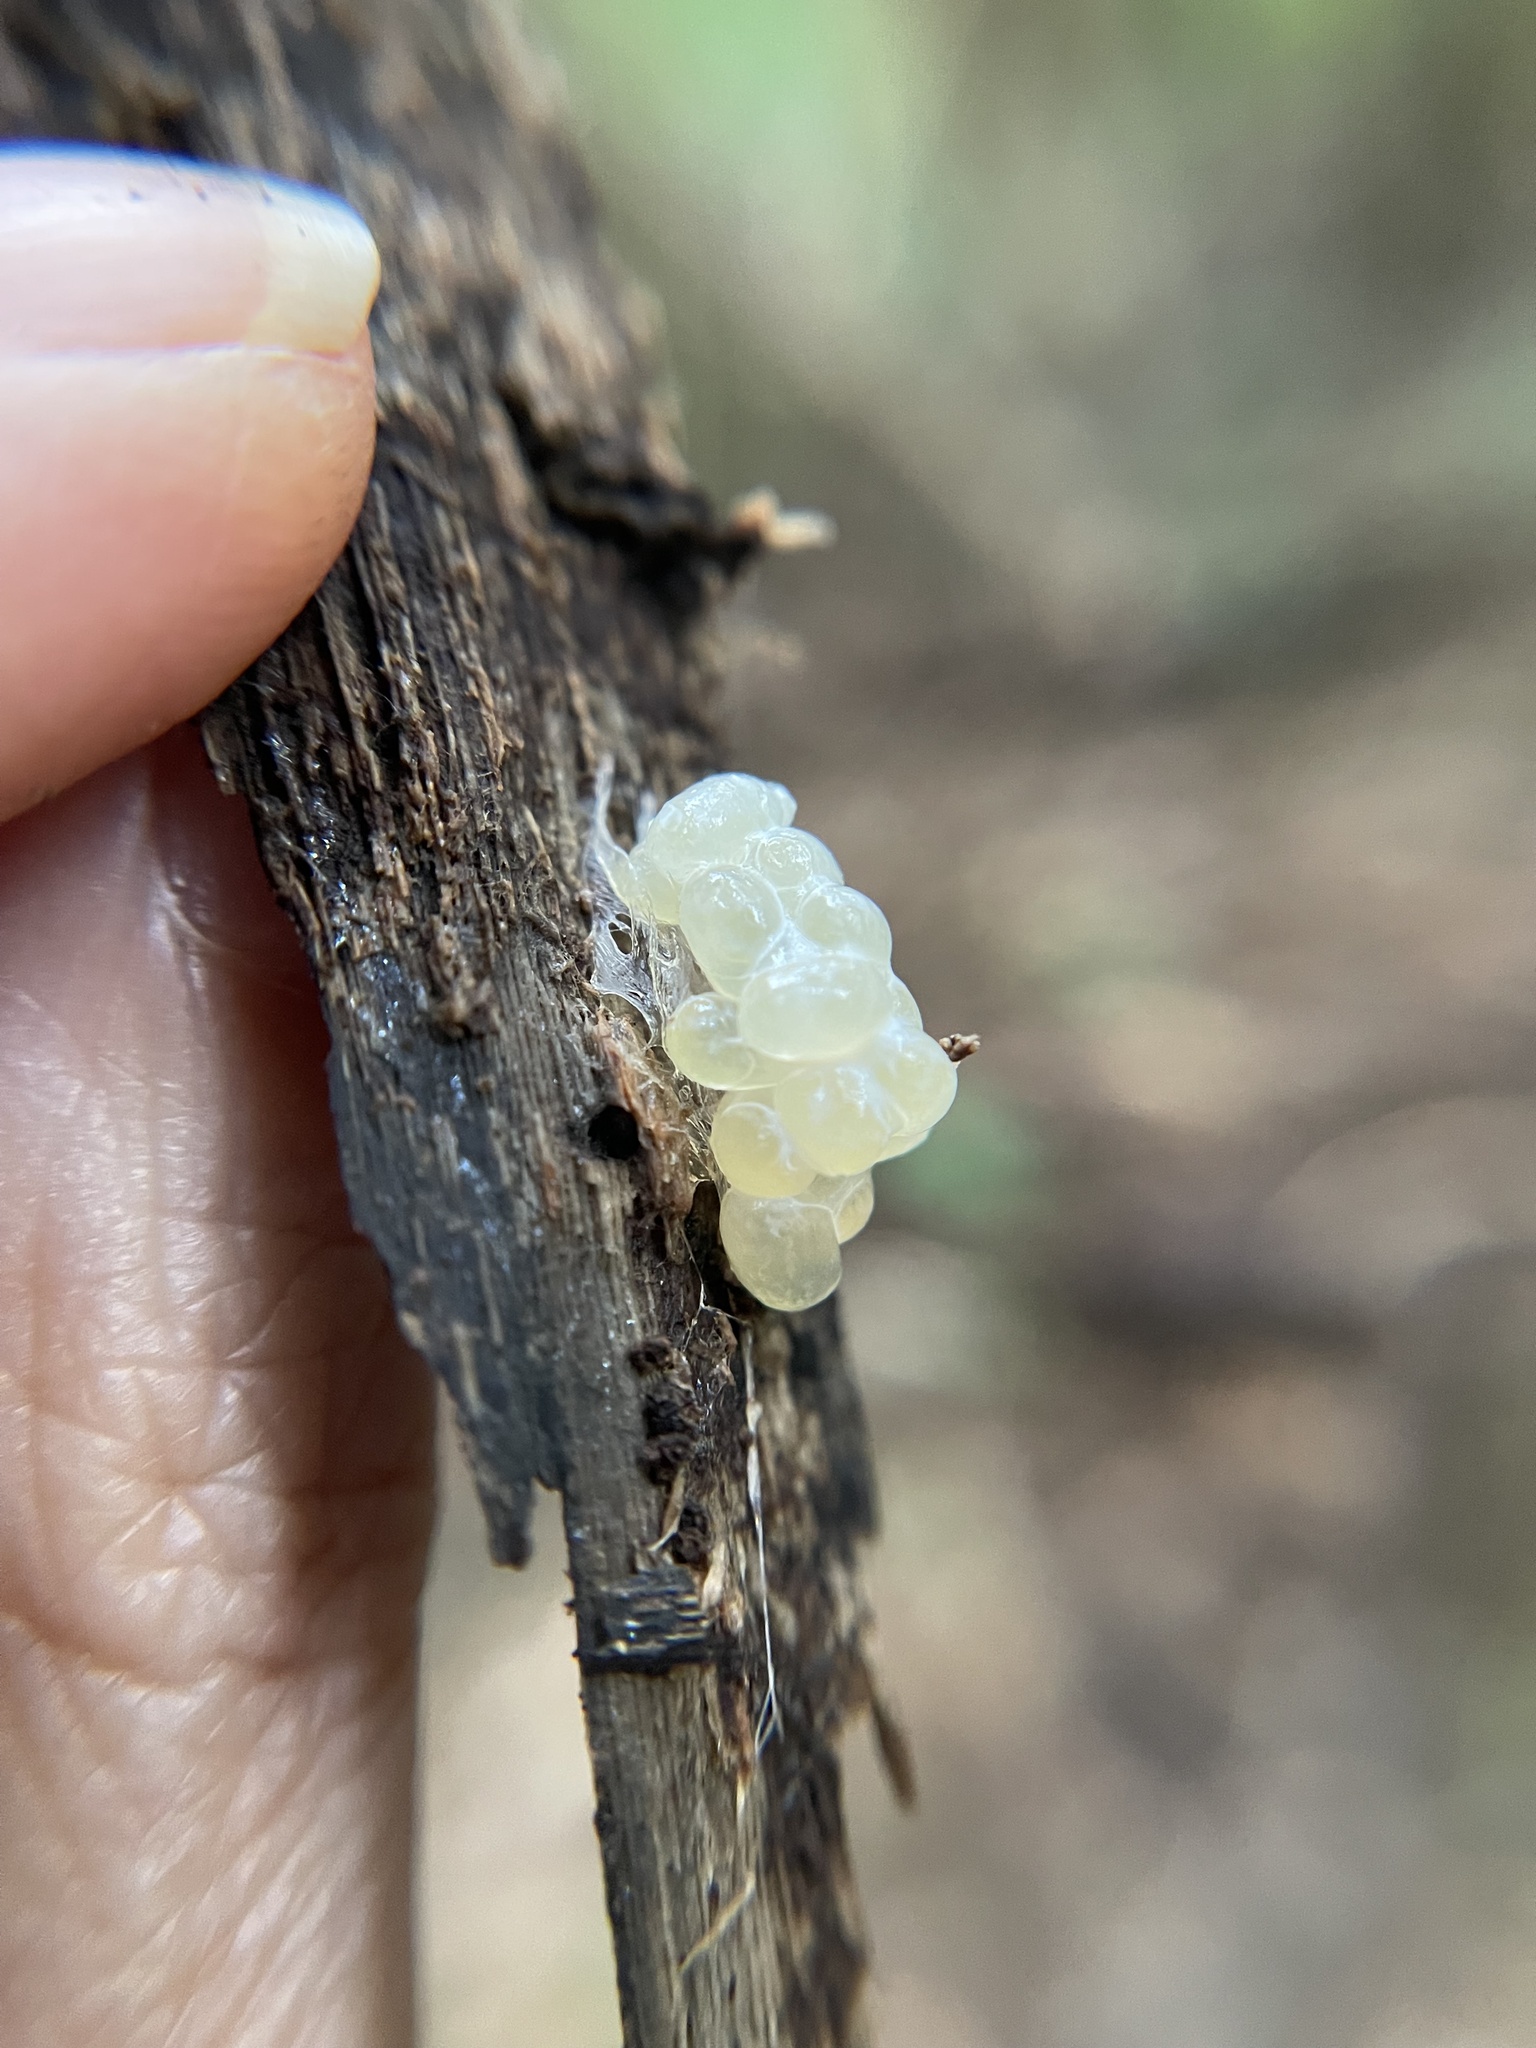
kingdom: Animalia
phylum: Mollusca
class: Gastropoda
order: Stylommatophora
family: Limacidae
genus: Limax
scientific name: Limax maximus
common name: Great grey slug
